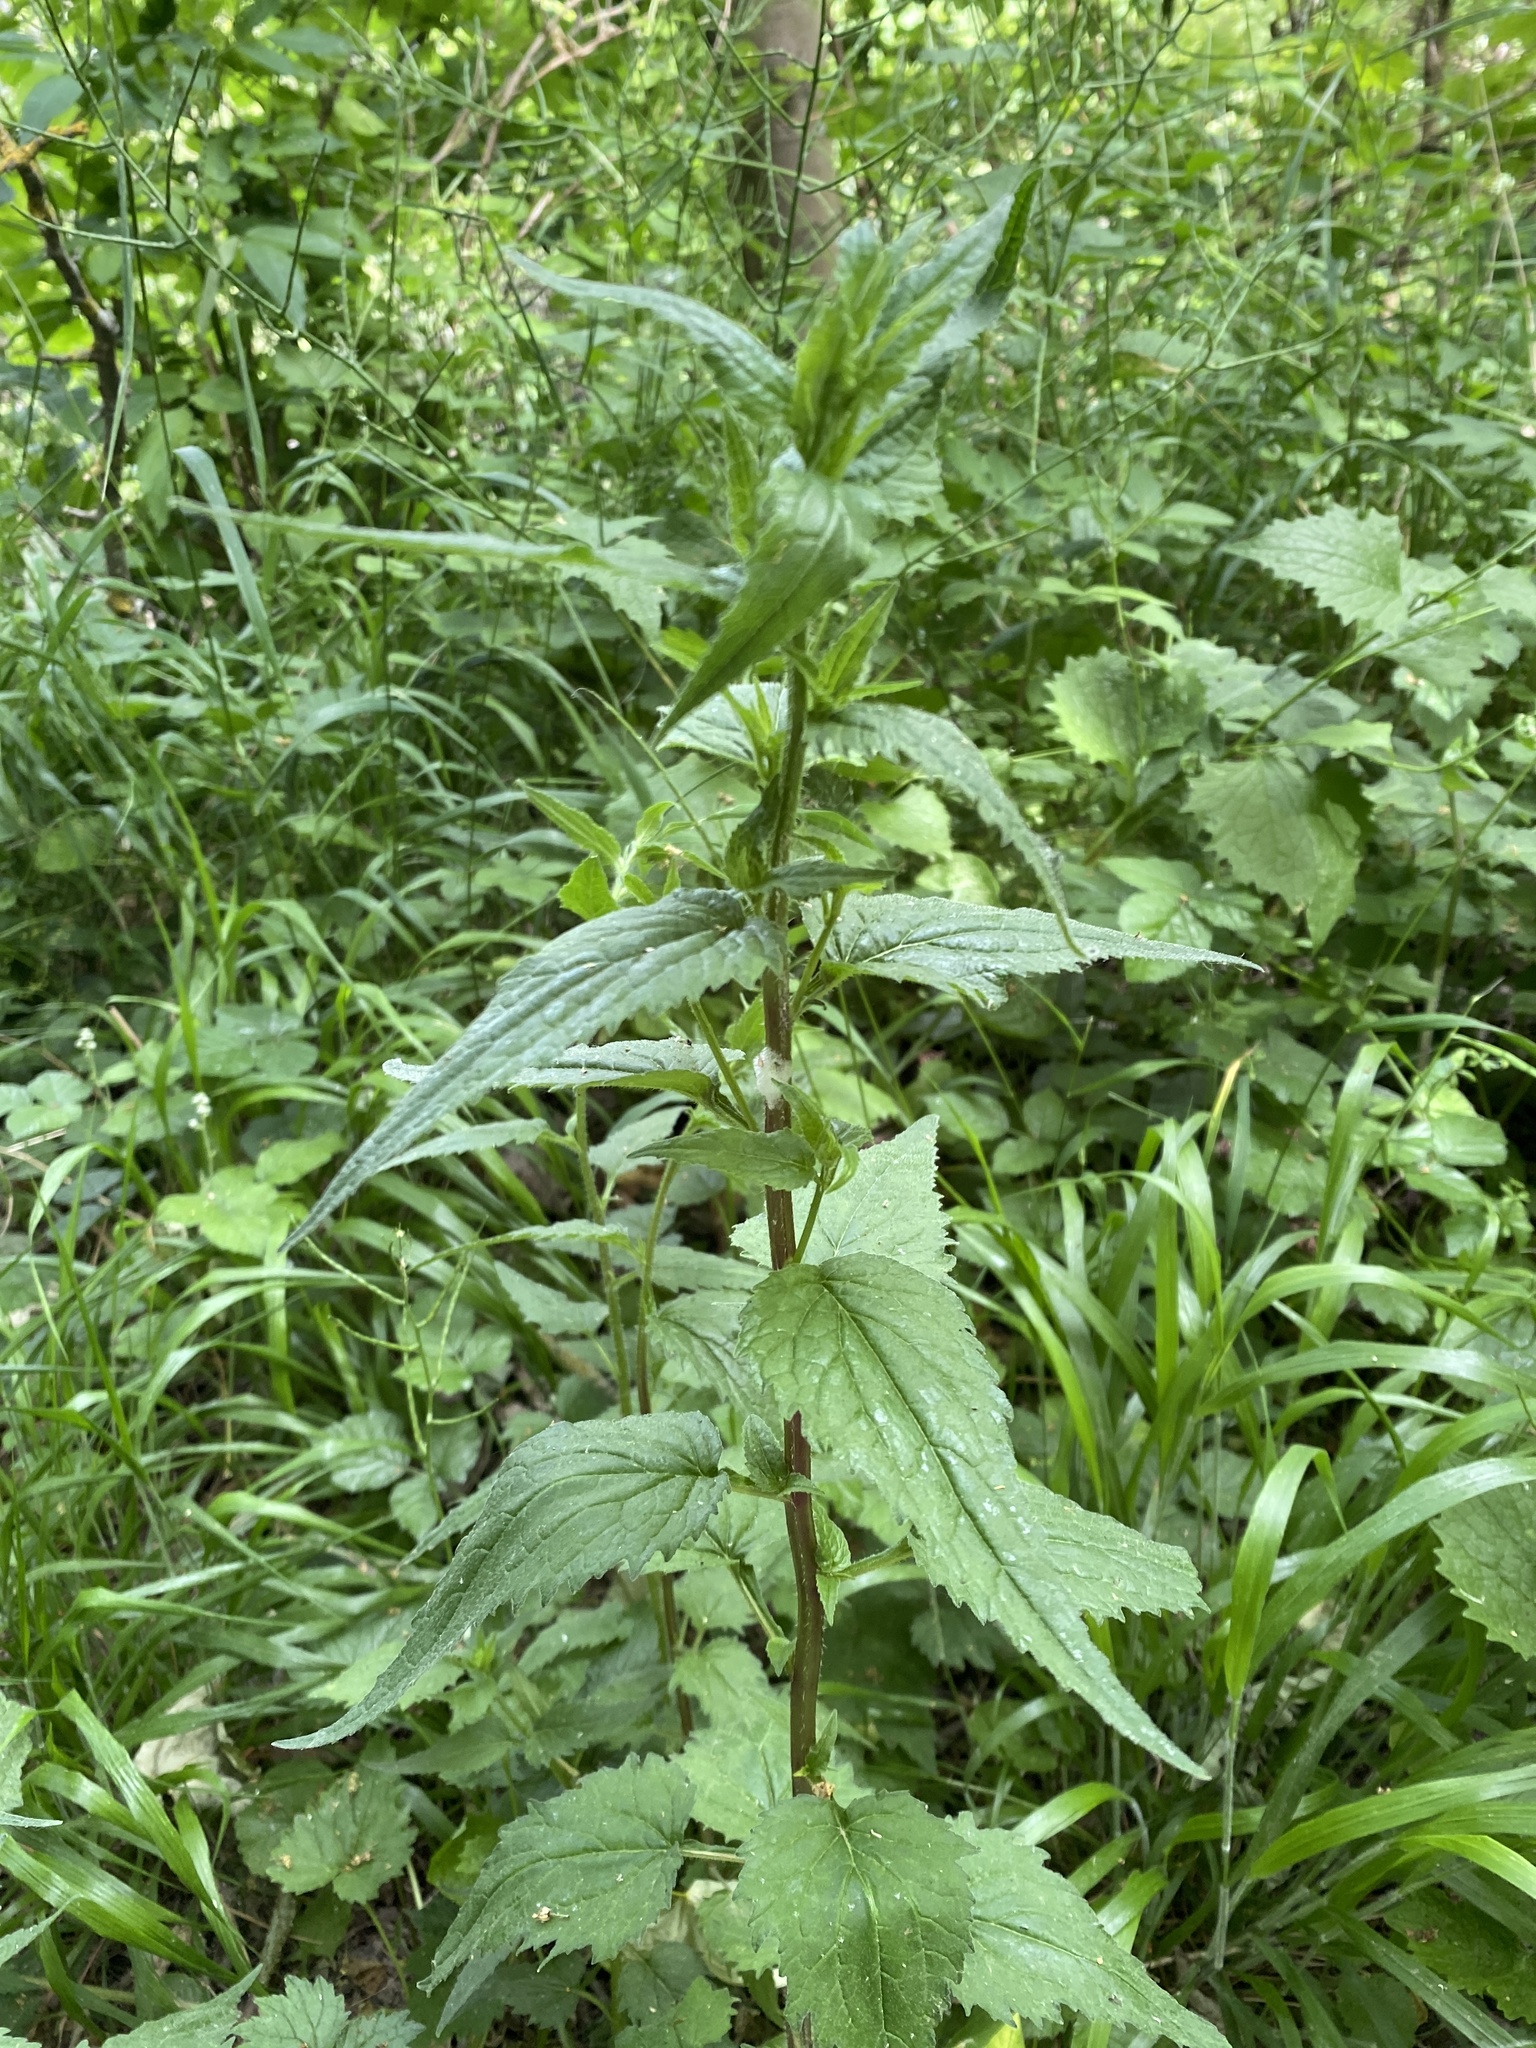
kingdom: Plantae
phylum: Tracheophyta
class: Magnoliopsida
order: Asterales
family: Campanulaceae
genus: Campanula
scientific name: Campanula trachelium
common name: Nettle-leaved bellflower
